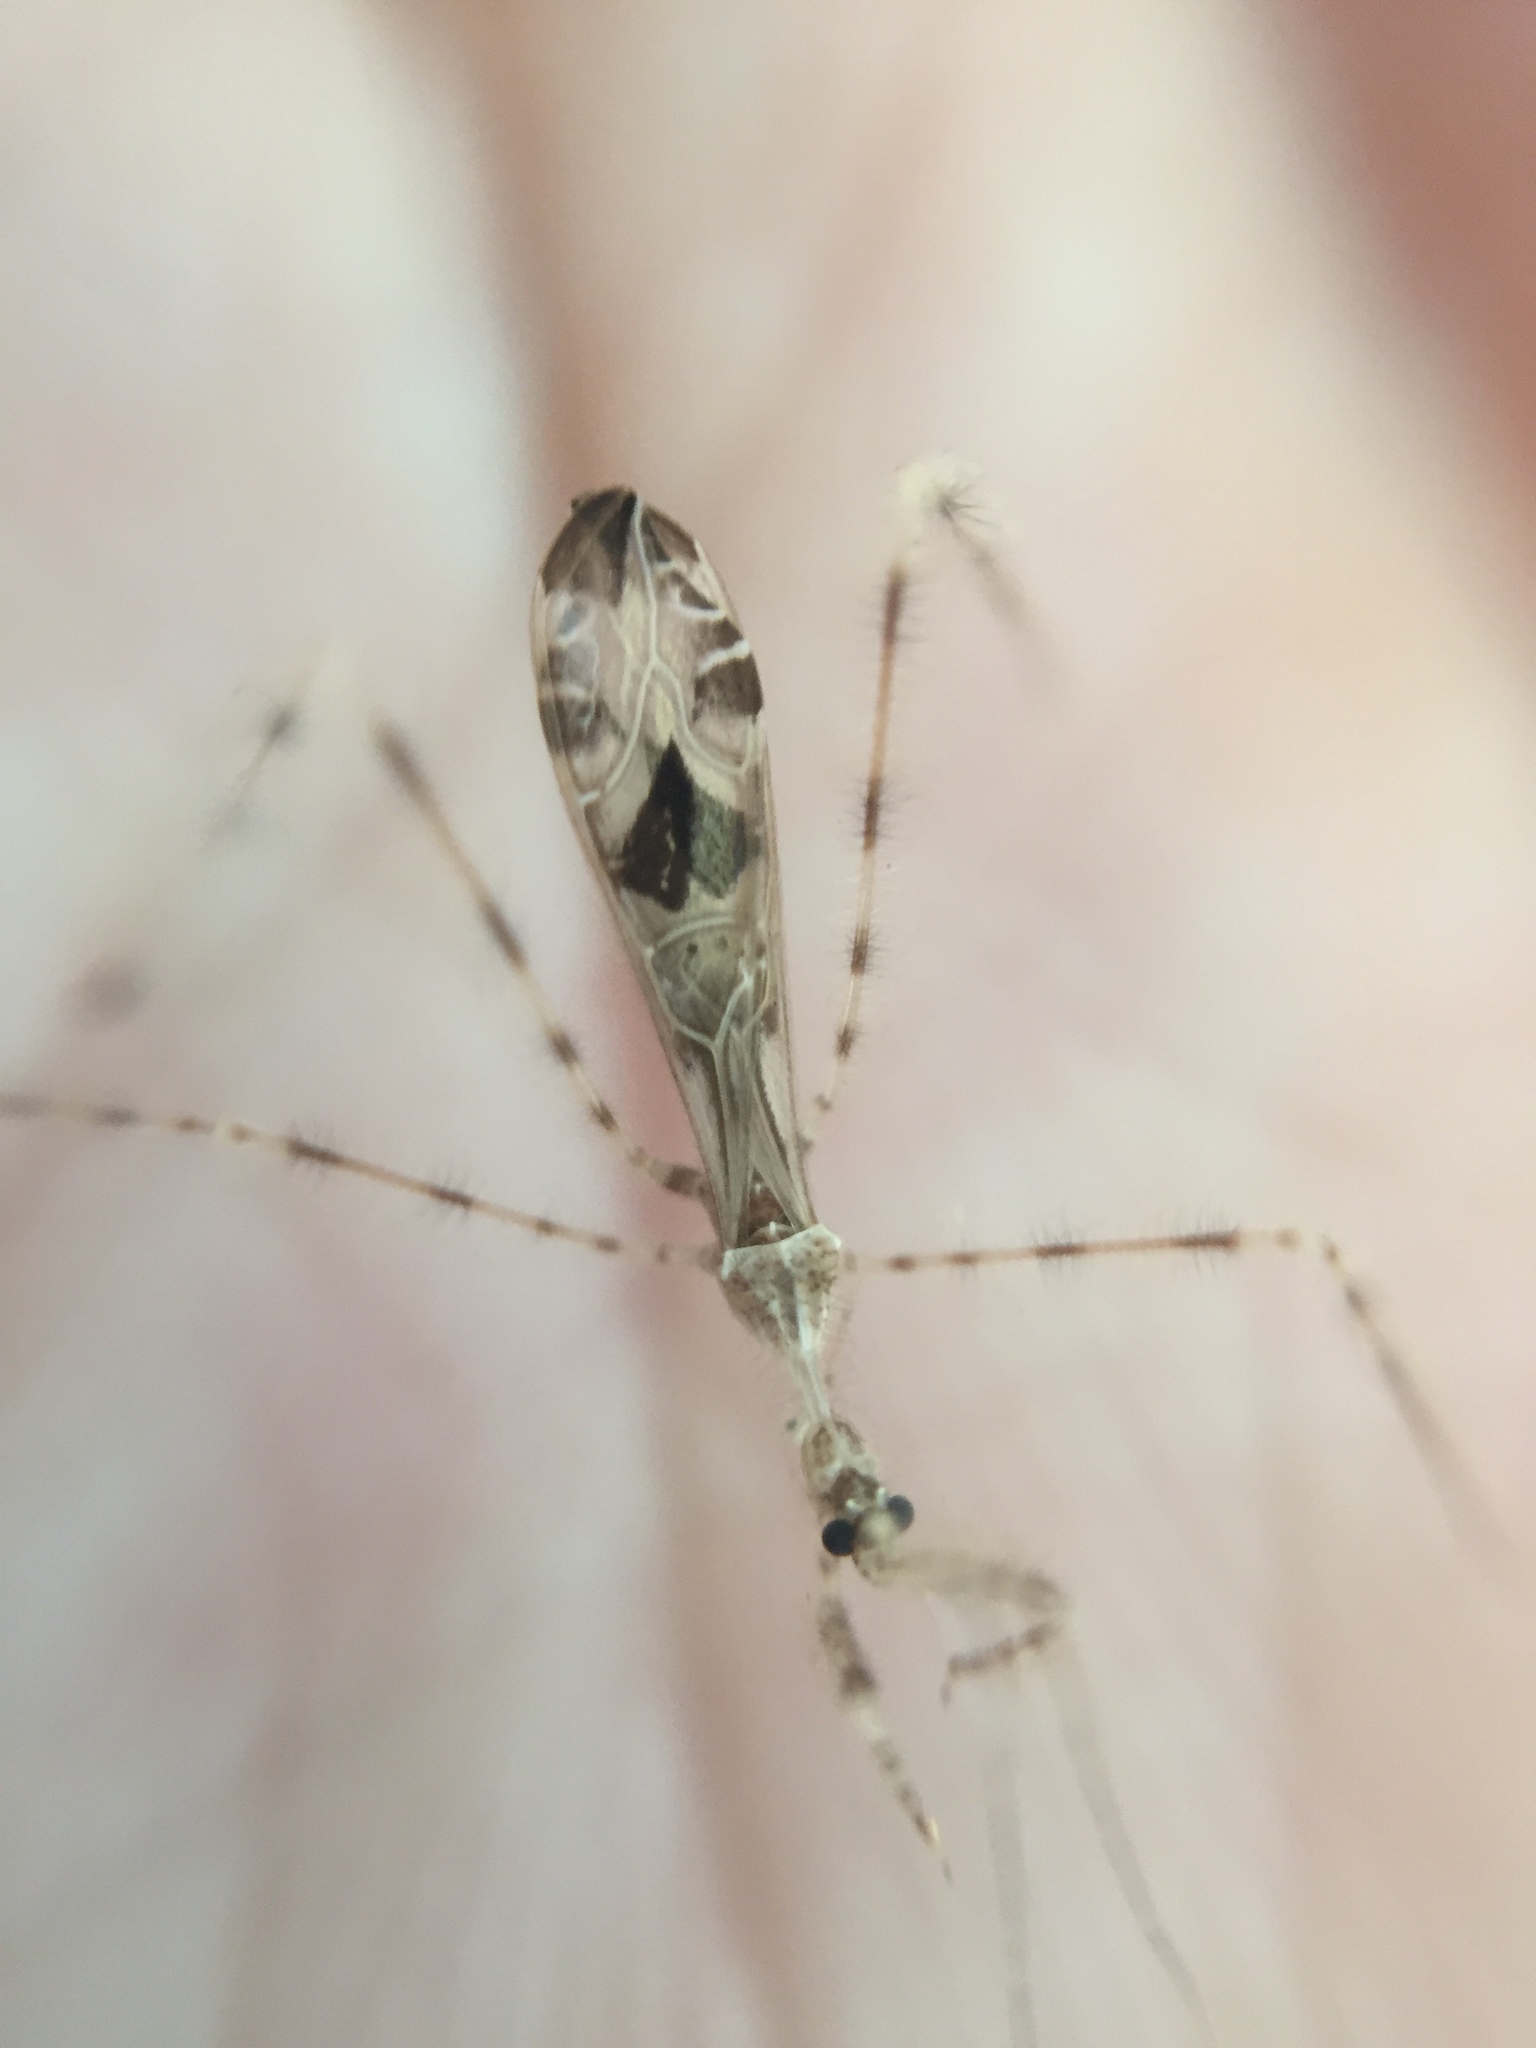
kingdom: Animalia
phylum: Arthropoda
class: Insecta
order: Hemiptera
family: Reduviidae
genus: Stenolemus
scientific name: Stenolemus fraterculus
